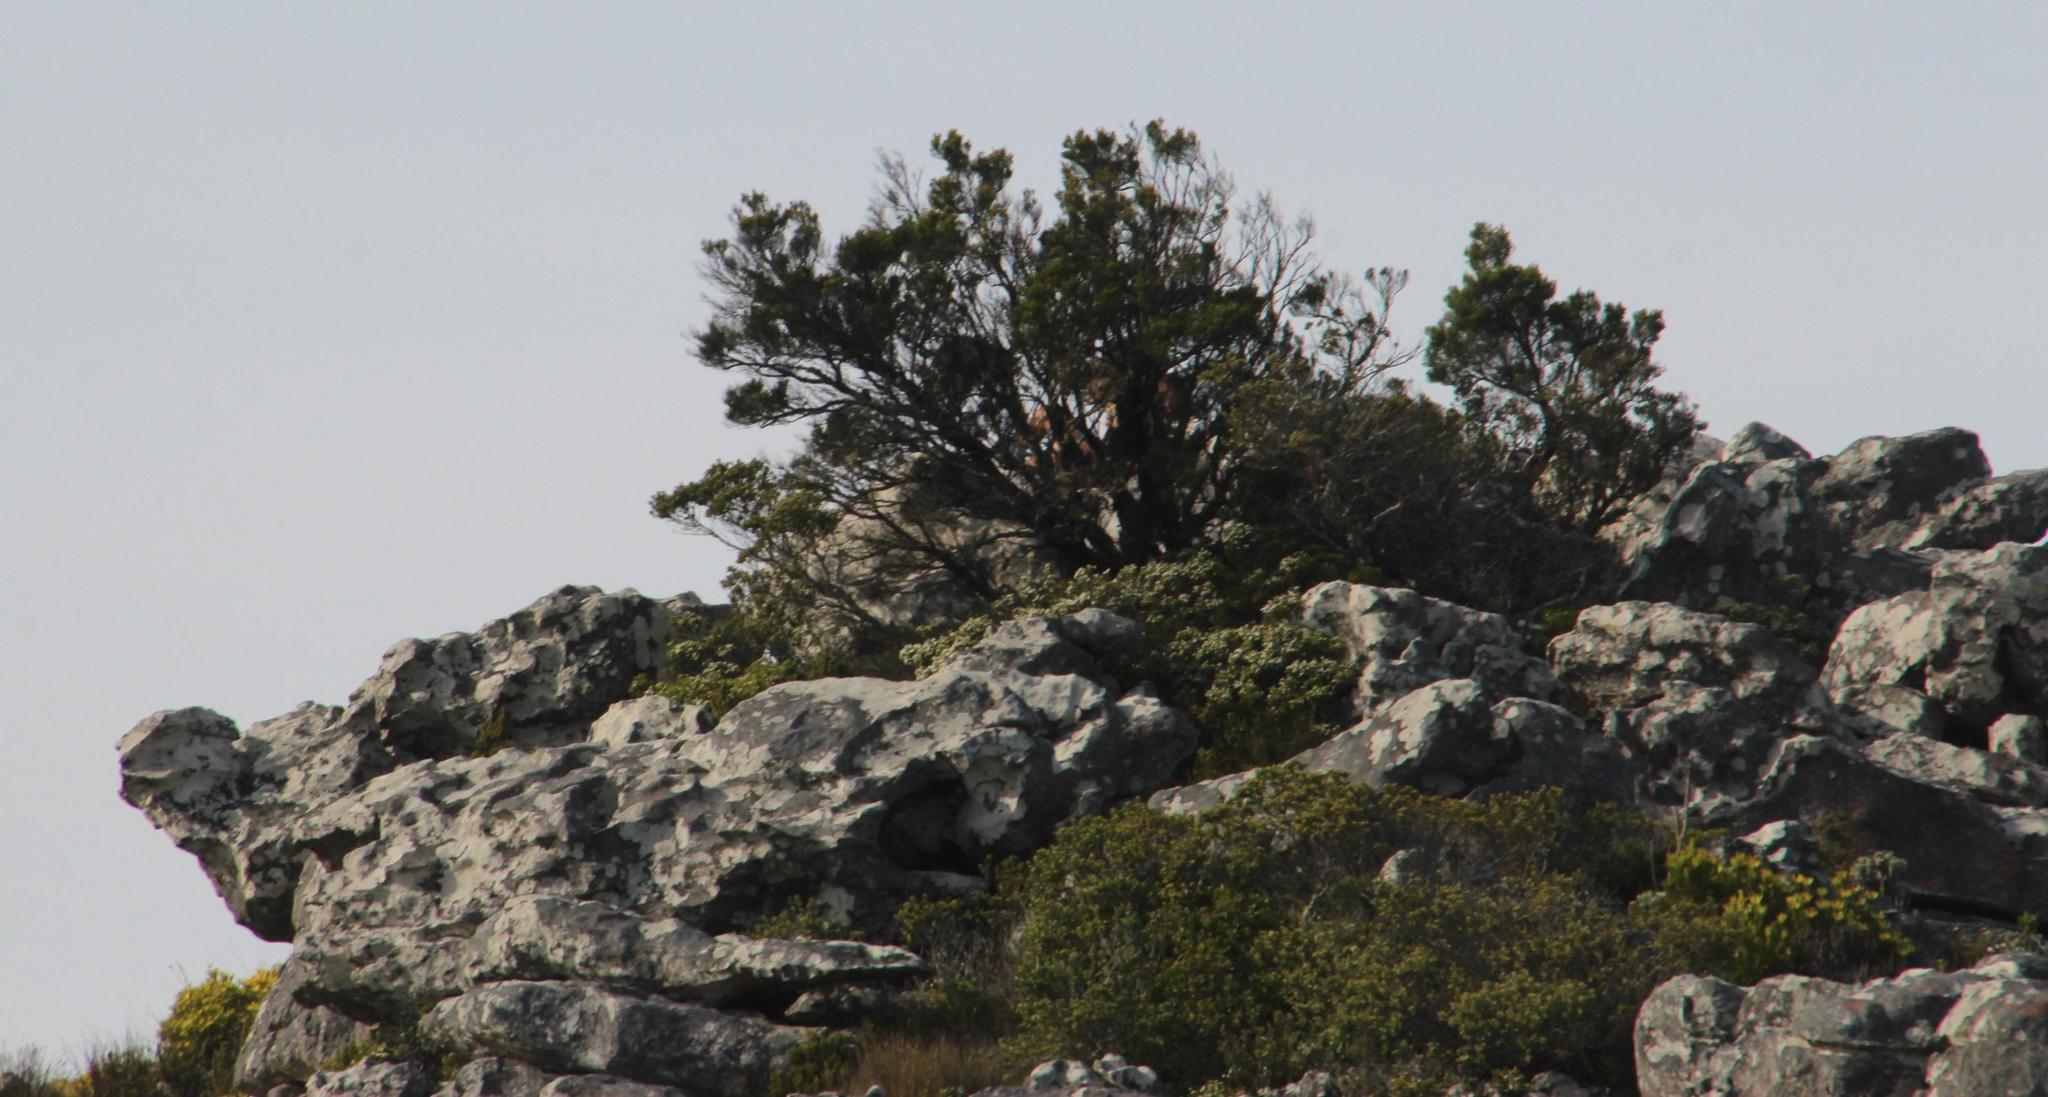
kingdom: Plantae
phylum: Tracheophyta
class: Magnoliopsida
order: Ericales
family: Ericaceae
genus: Erica
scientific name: Erica tristis
